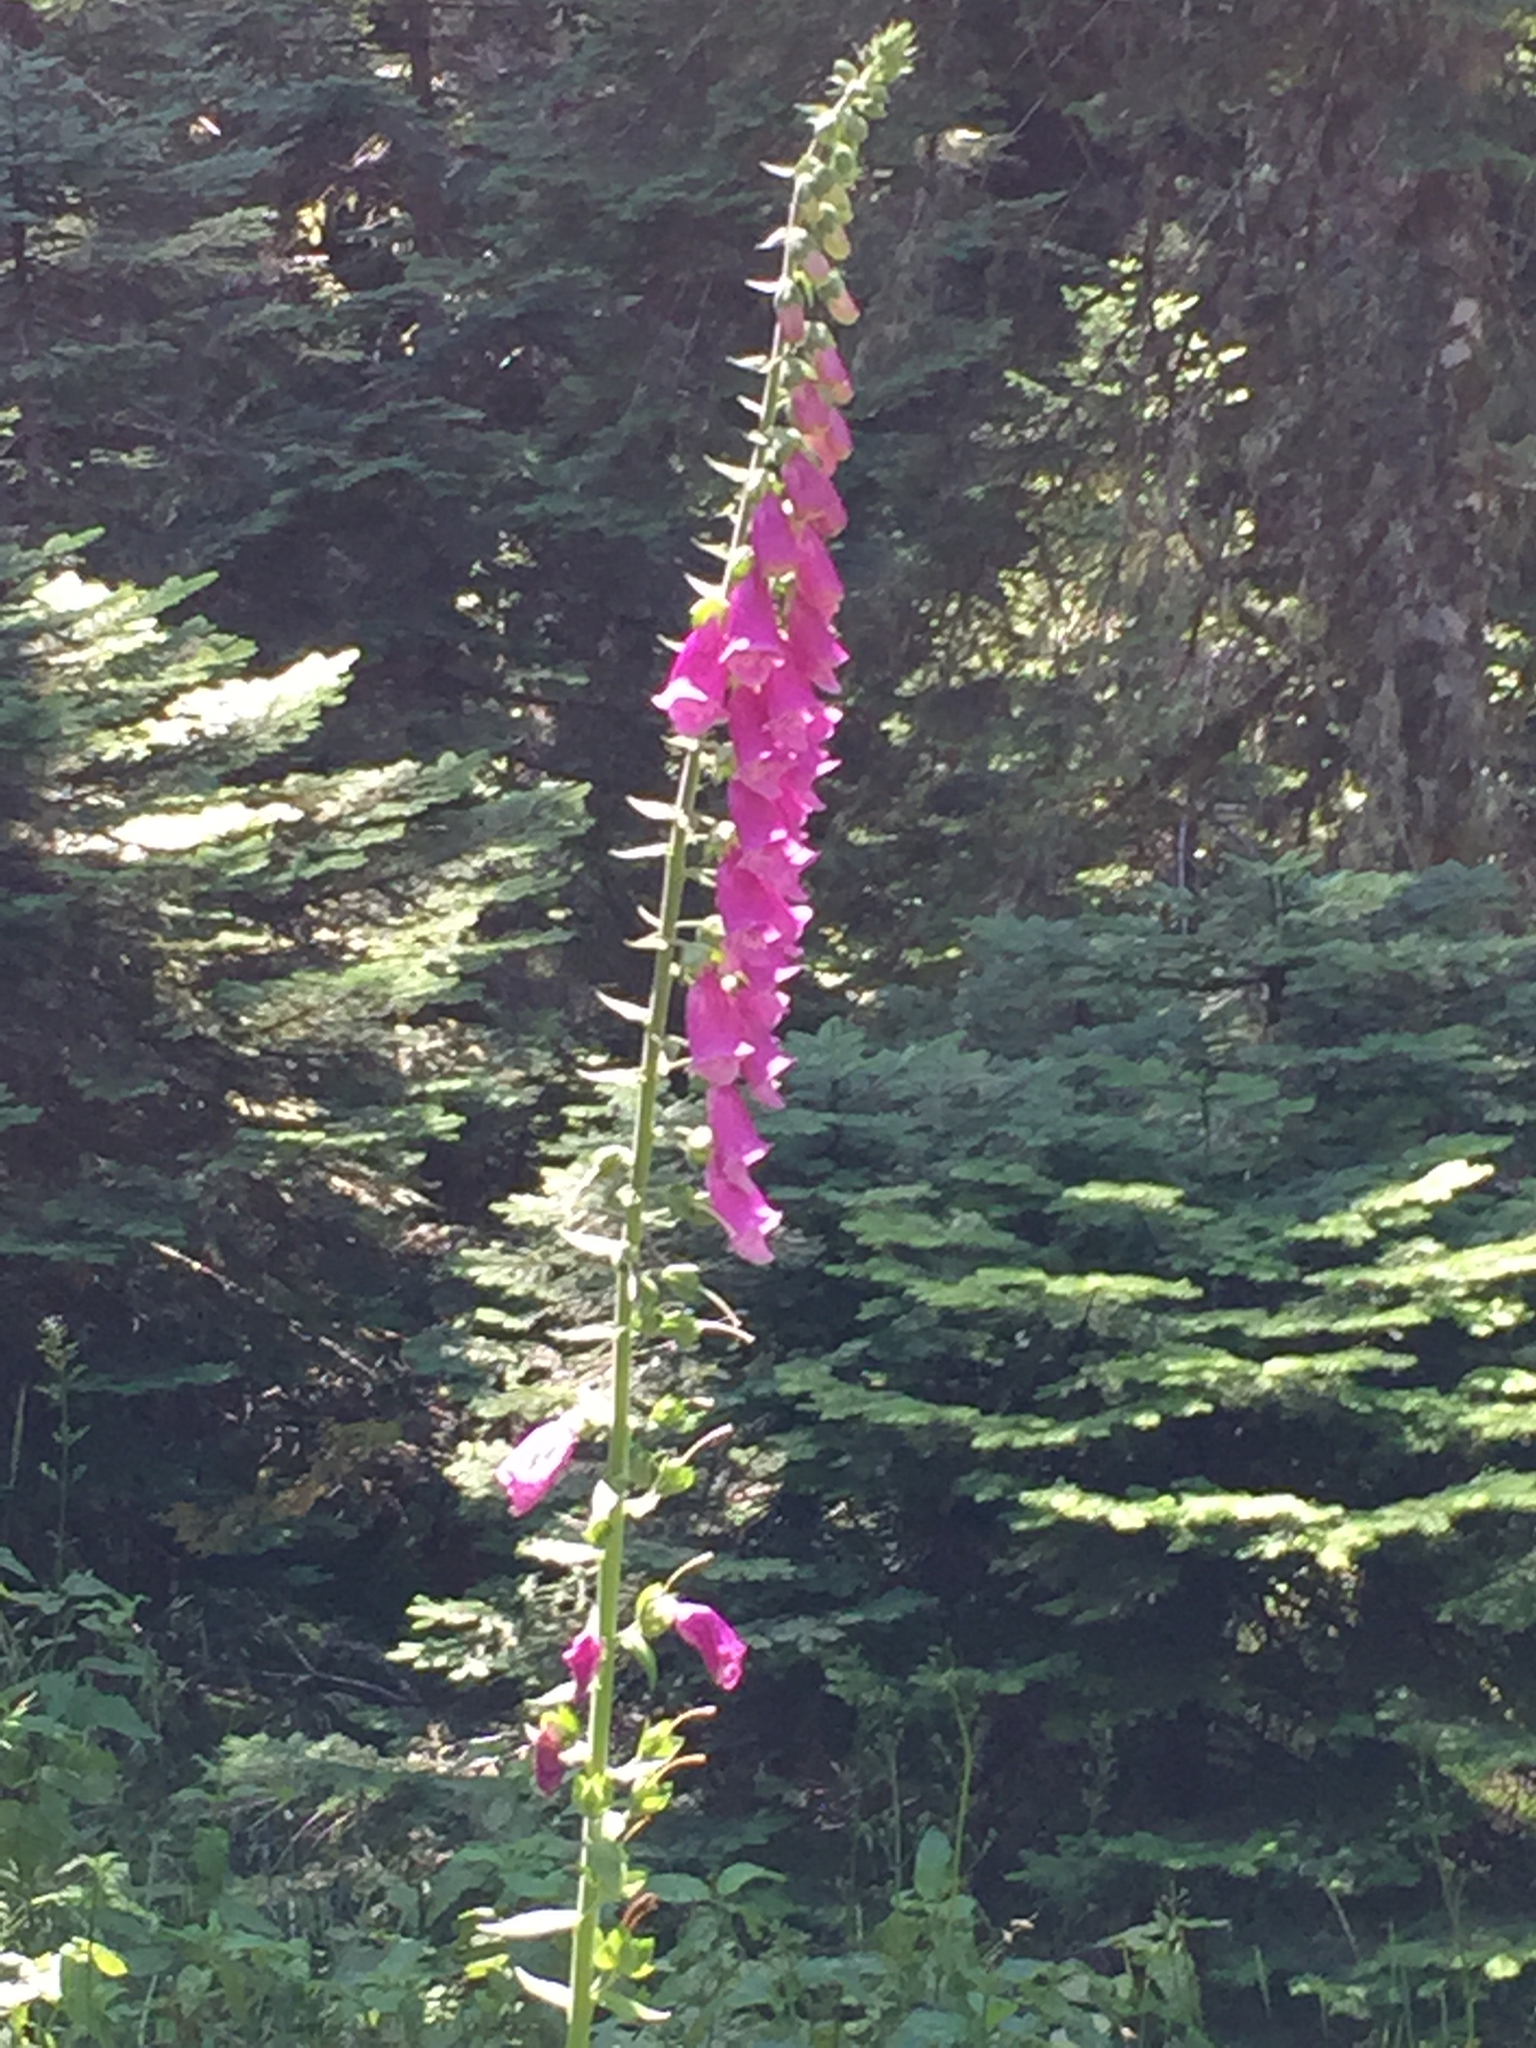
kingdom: Plantae
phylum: Tracheophyta
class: Magnoliopsida
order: Lamiales
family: Plantaginaceae
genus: Digitalis
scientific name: Digitalis purpurea
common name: Foxglove
